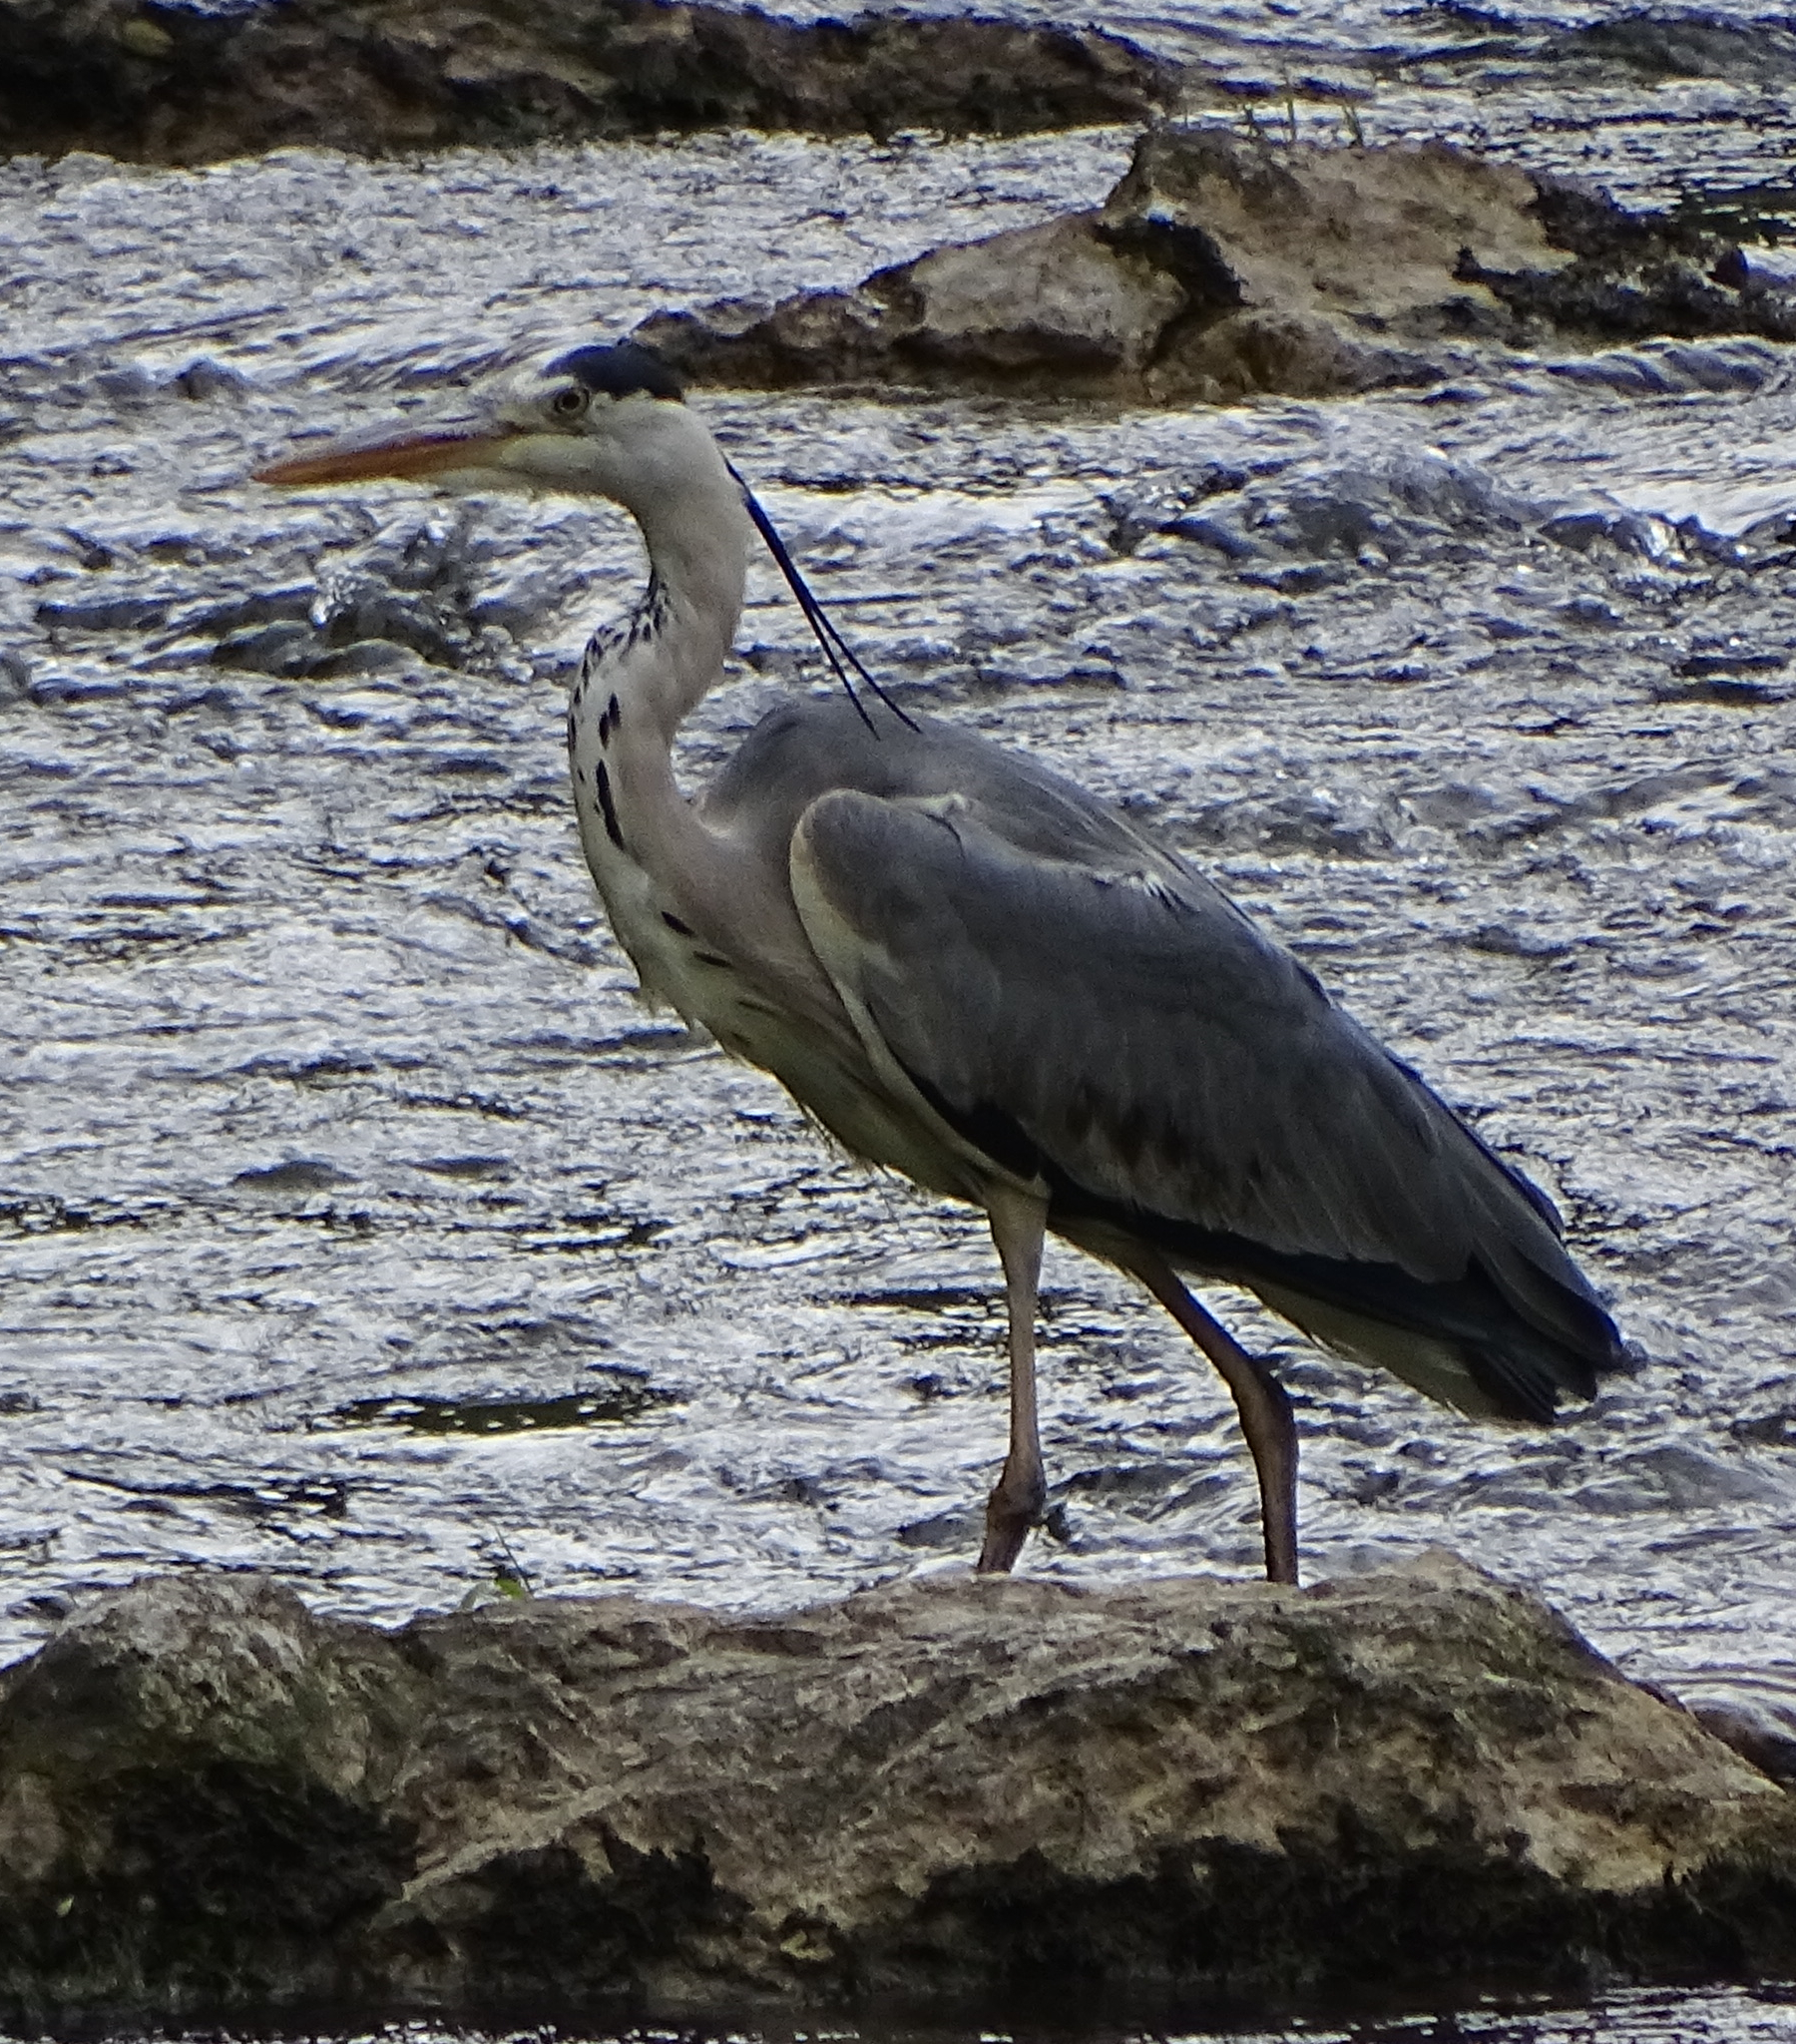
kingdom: Animalia
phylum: Chordata
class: Aves
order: Pelecaniformes
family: Ardeidae
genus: Ardea
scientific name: Ardea cinerea
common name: Grey heron
